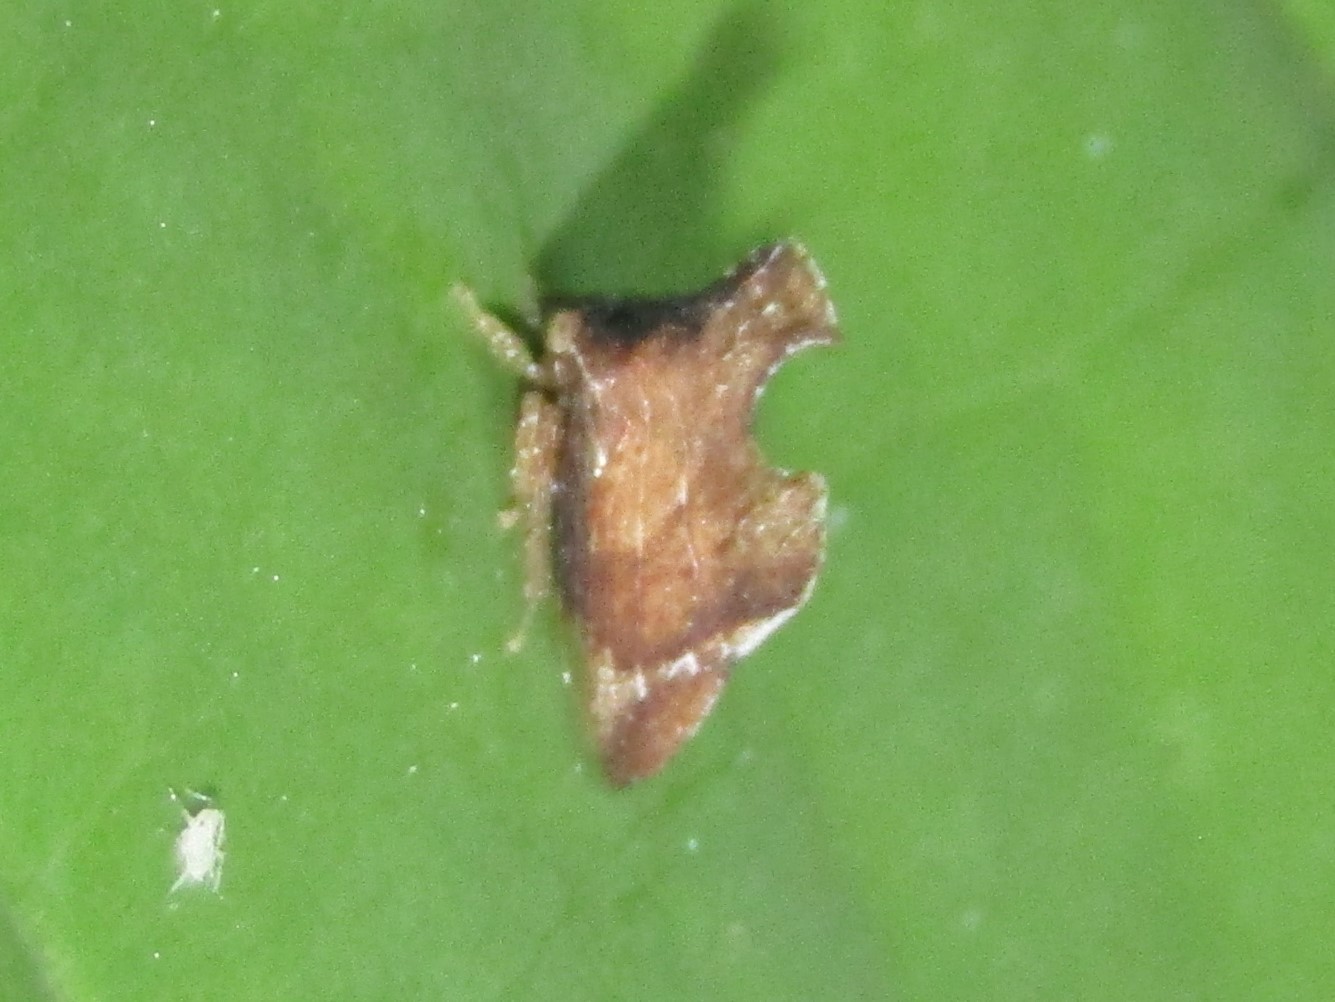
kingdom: Animalia
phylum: Arthropoda
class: Insecta
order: Hemiptera
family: Membracidae
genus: Entylia
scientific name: Entylia carinata
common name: Keeled treehopper
